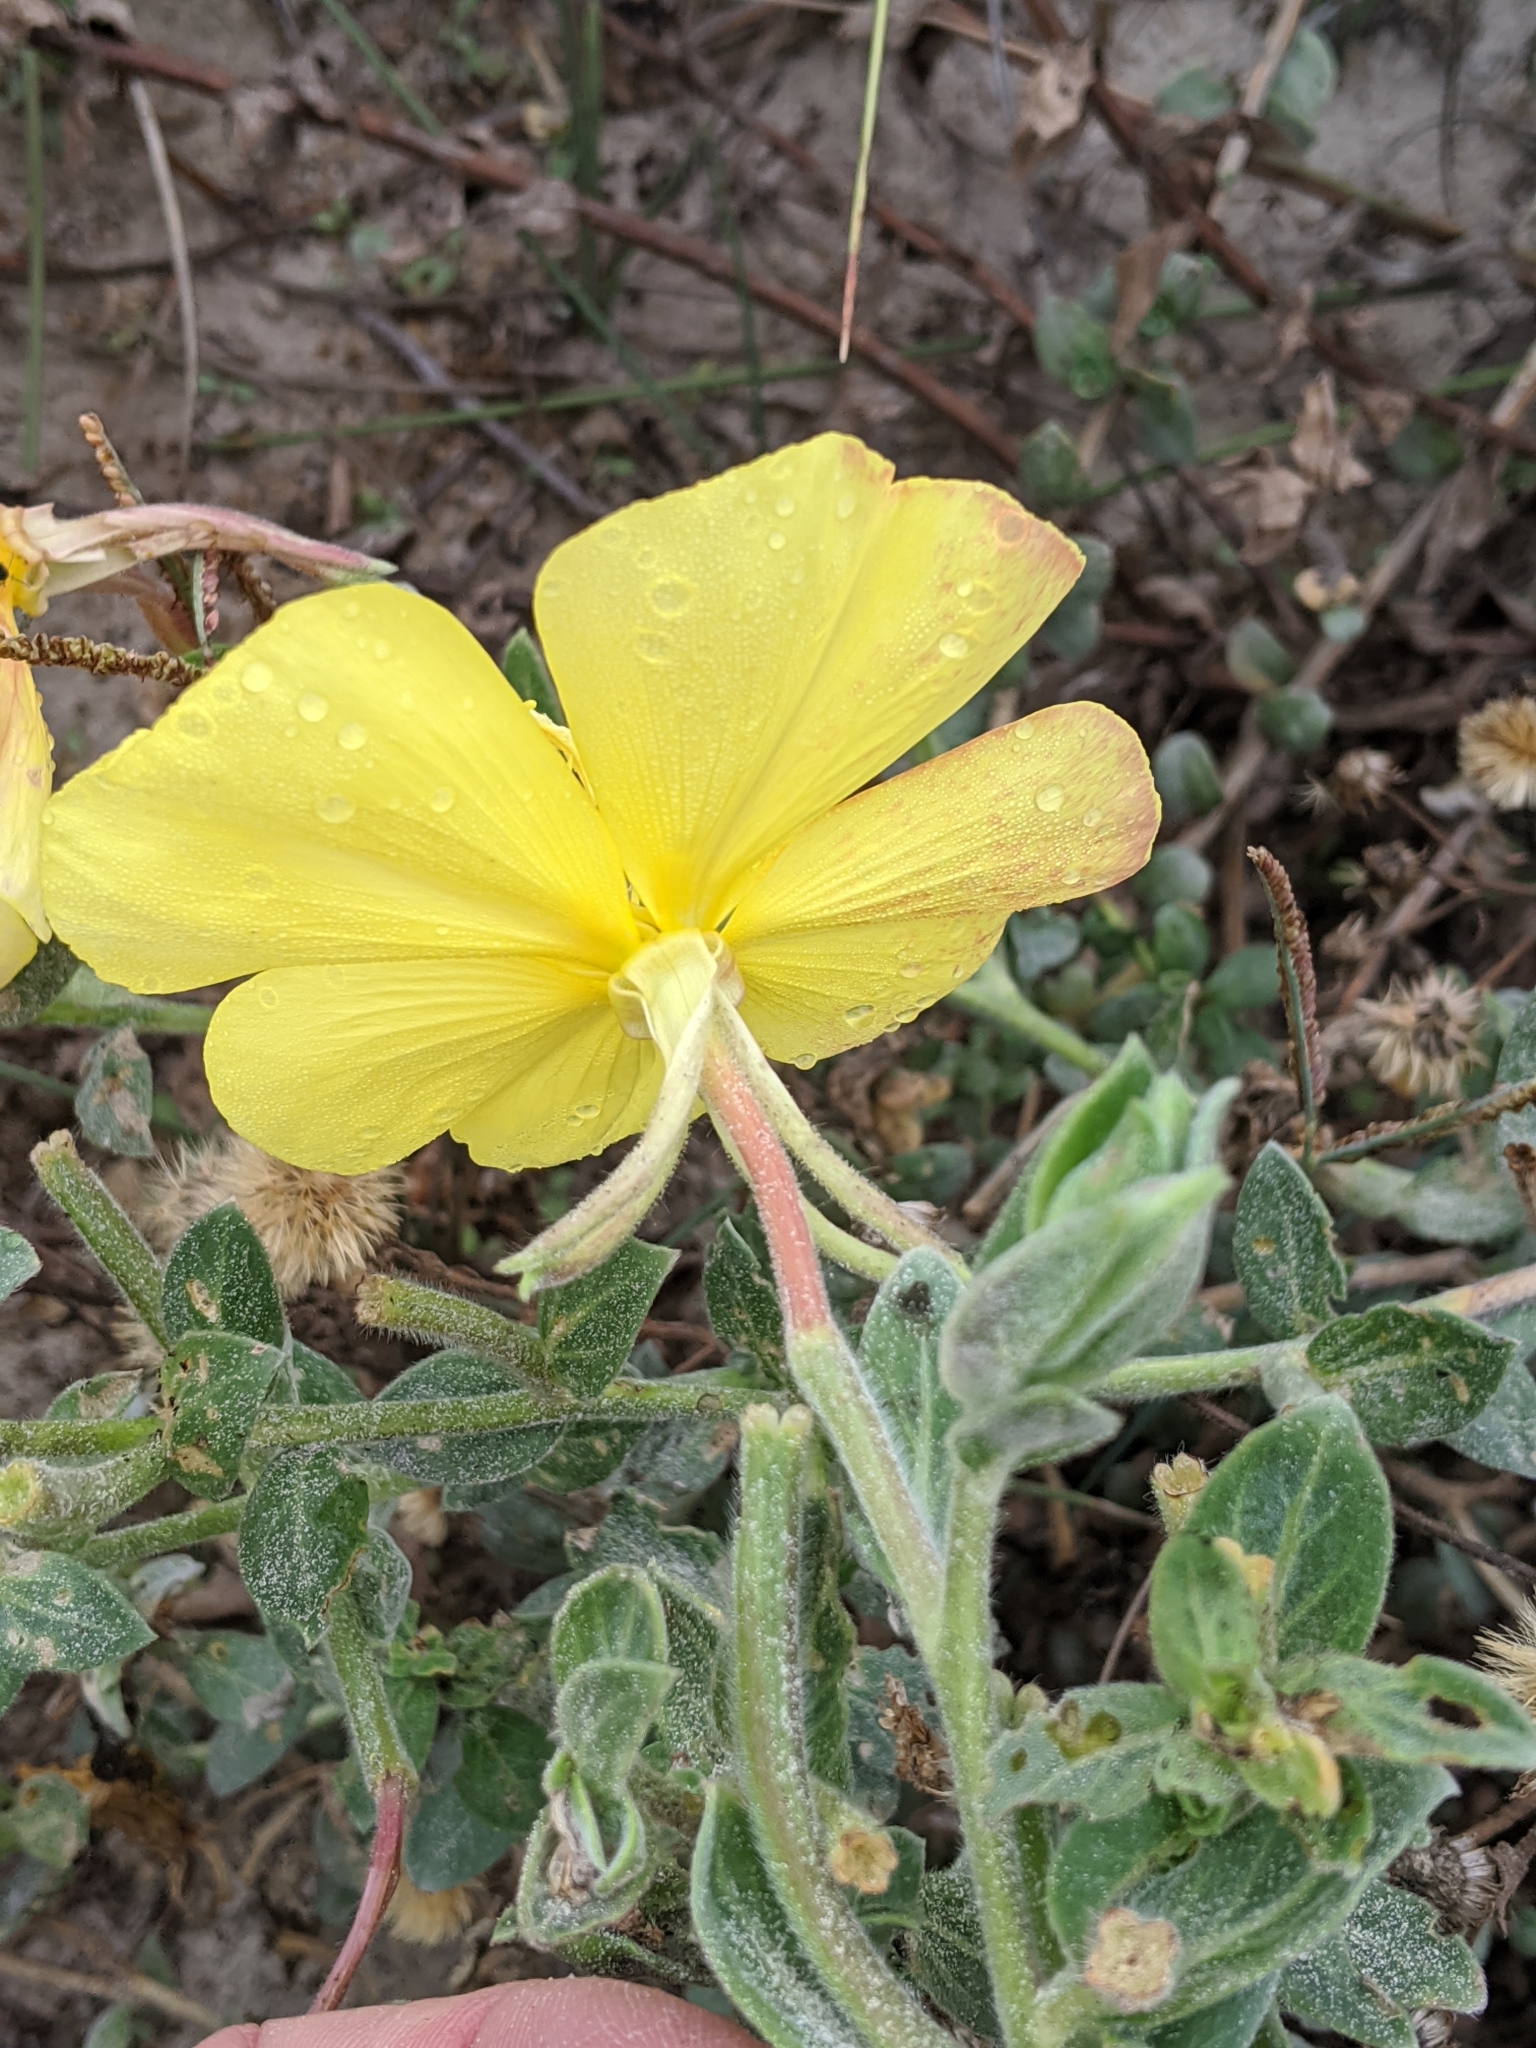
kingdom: Plantae
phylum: Tracheophyta
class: Magnoliopsida
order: Myrtales
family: Onagraceae
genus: Oenothera
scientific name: Oenothera drummondii
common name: Beach evening-primrose
